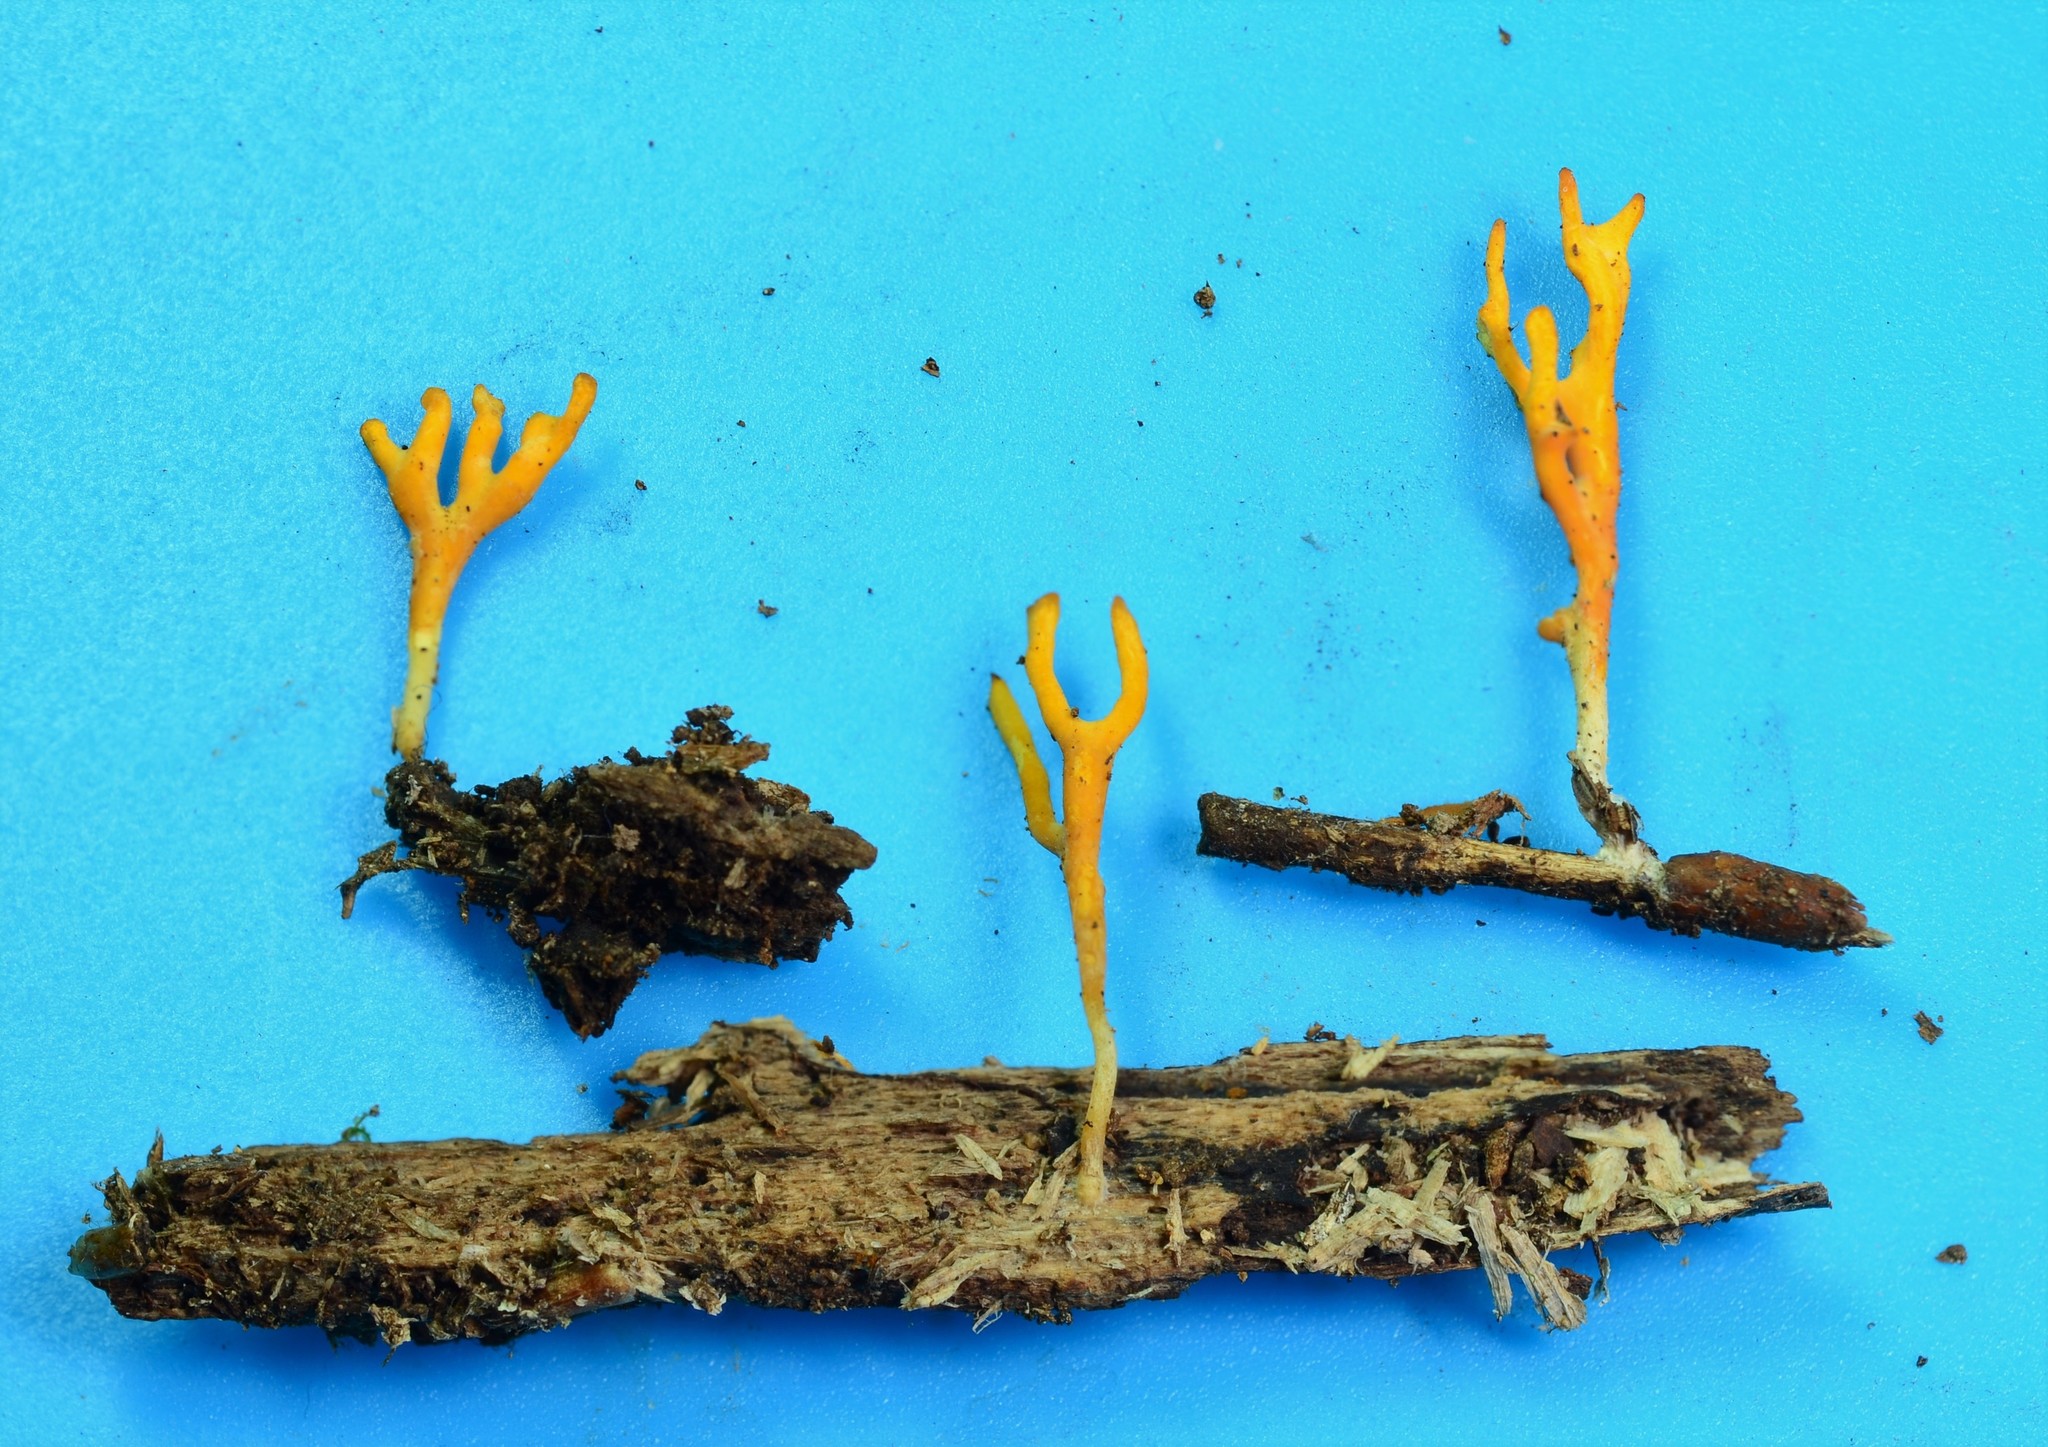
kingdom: Fungi
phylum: Basidiomycota
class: Agaricomycetes
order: Agaricales
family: Clavariaceae
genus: Ramariopsis
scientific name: Ramariopsis crocea
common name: Orange coral
